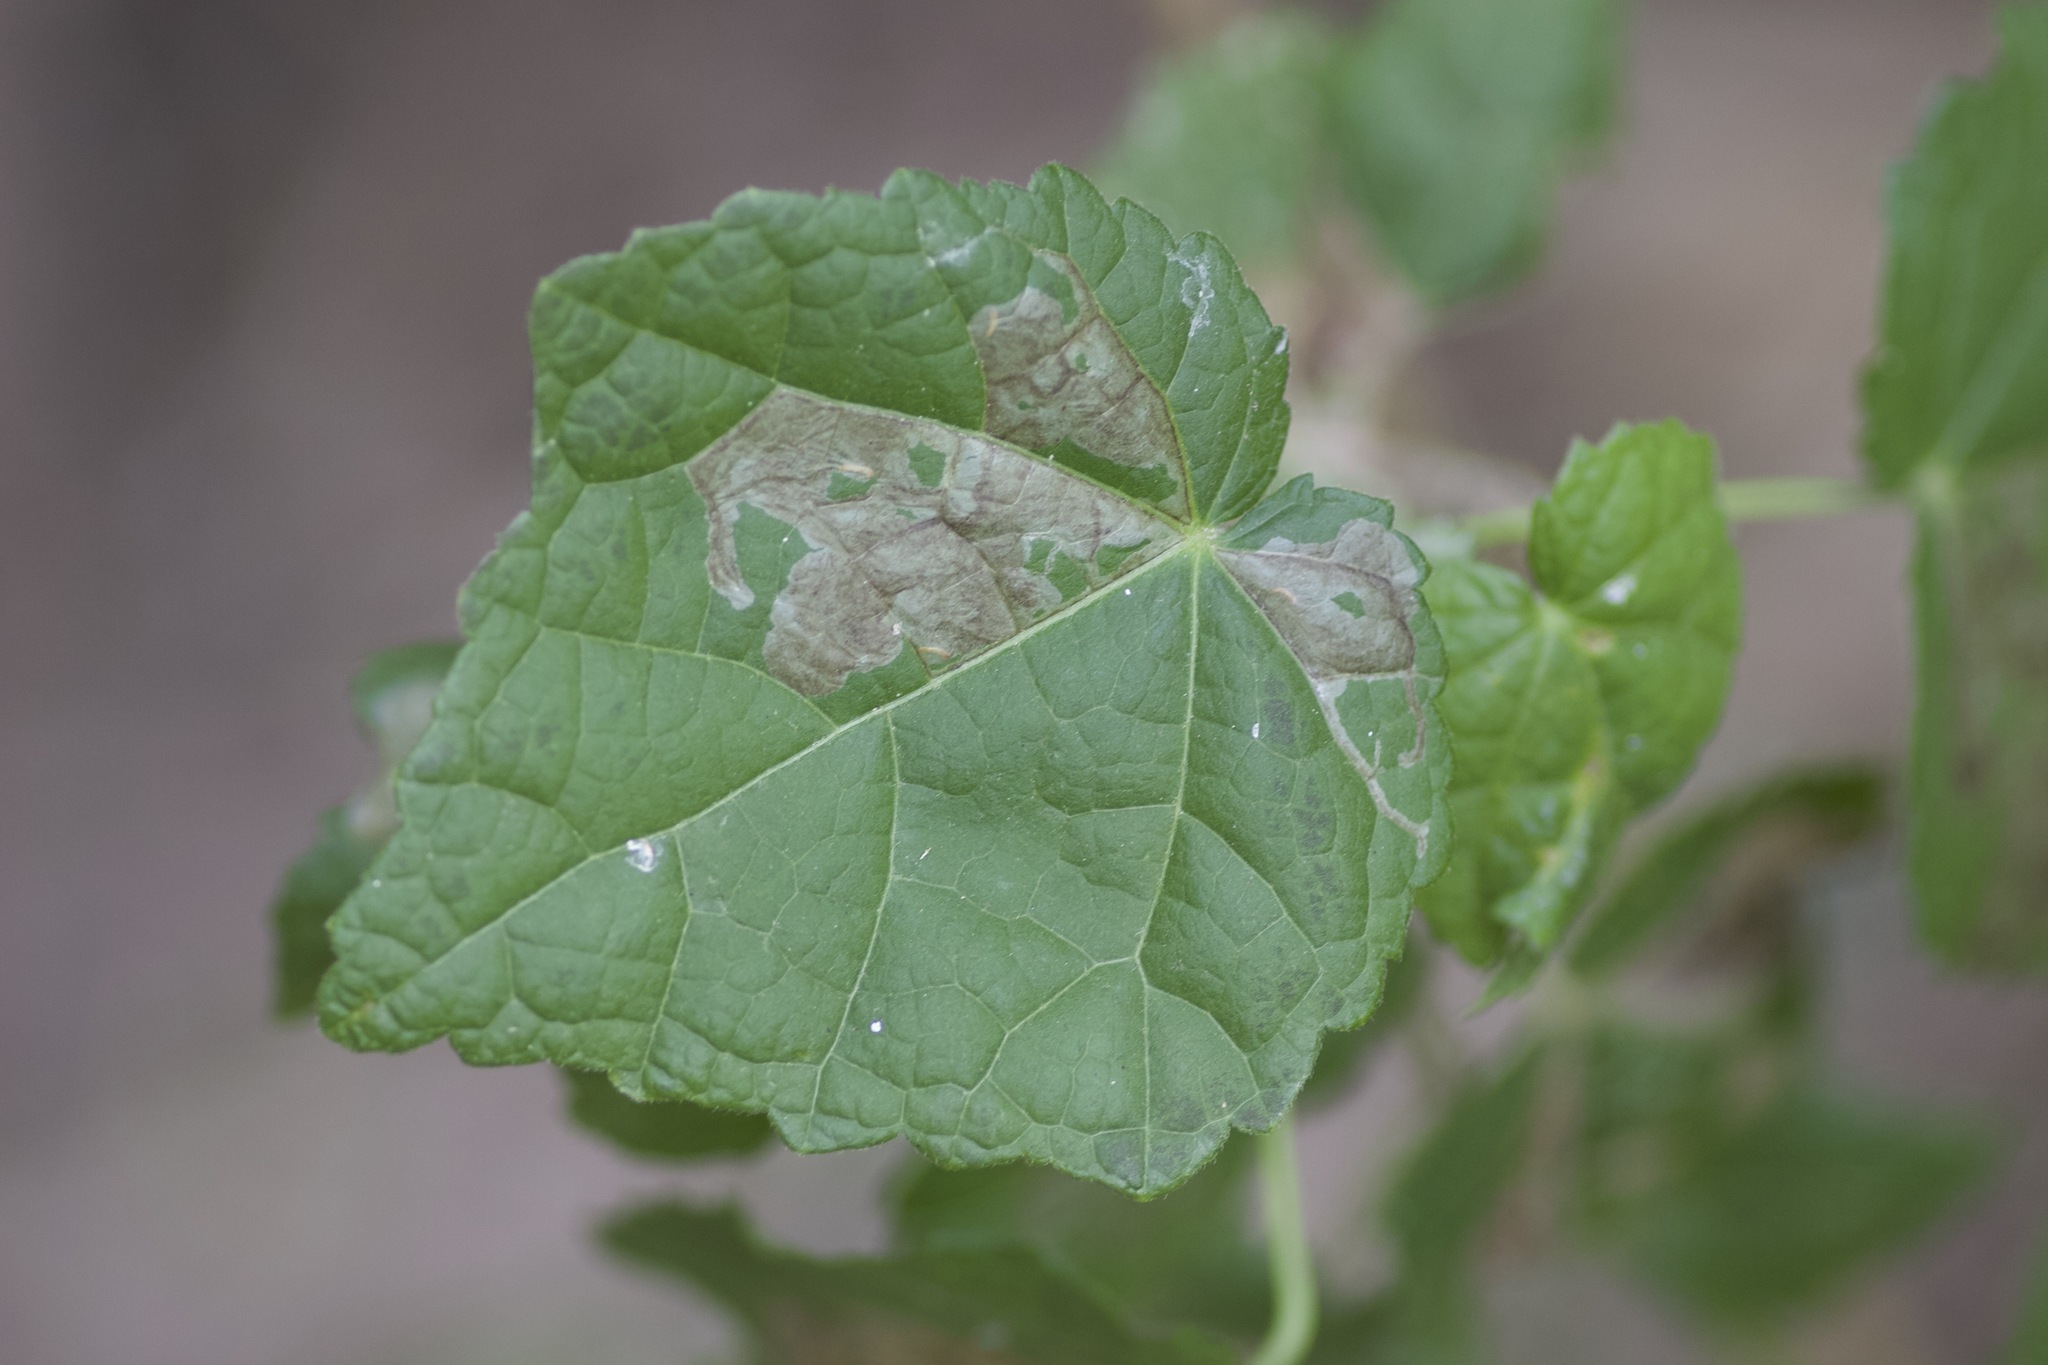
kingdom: Plantae
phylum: Tracheophyta
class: Magnoliopsida
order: Malvales
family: Malvaceae
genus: Malvaviscus
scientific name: Malvaviscus arboreus
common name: Wax mallow
